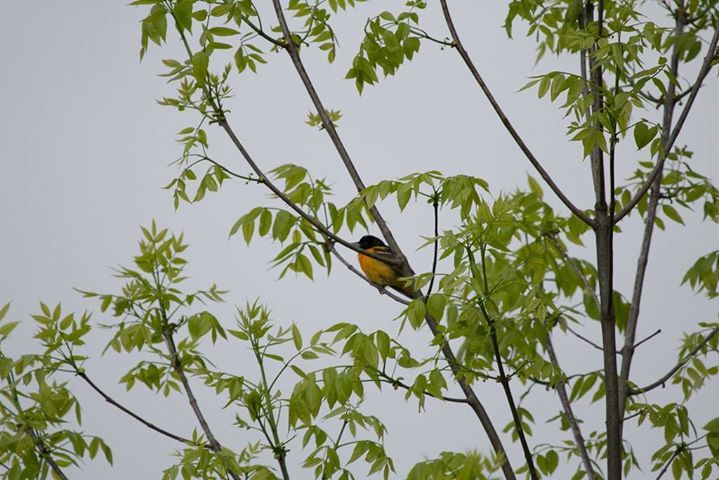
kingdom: Animalia
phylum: Chordata
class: Aves
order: Passeriformes
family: Icteridae
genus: Icterus
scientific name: Icterus galbula
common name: Baltimore oriole
